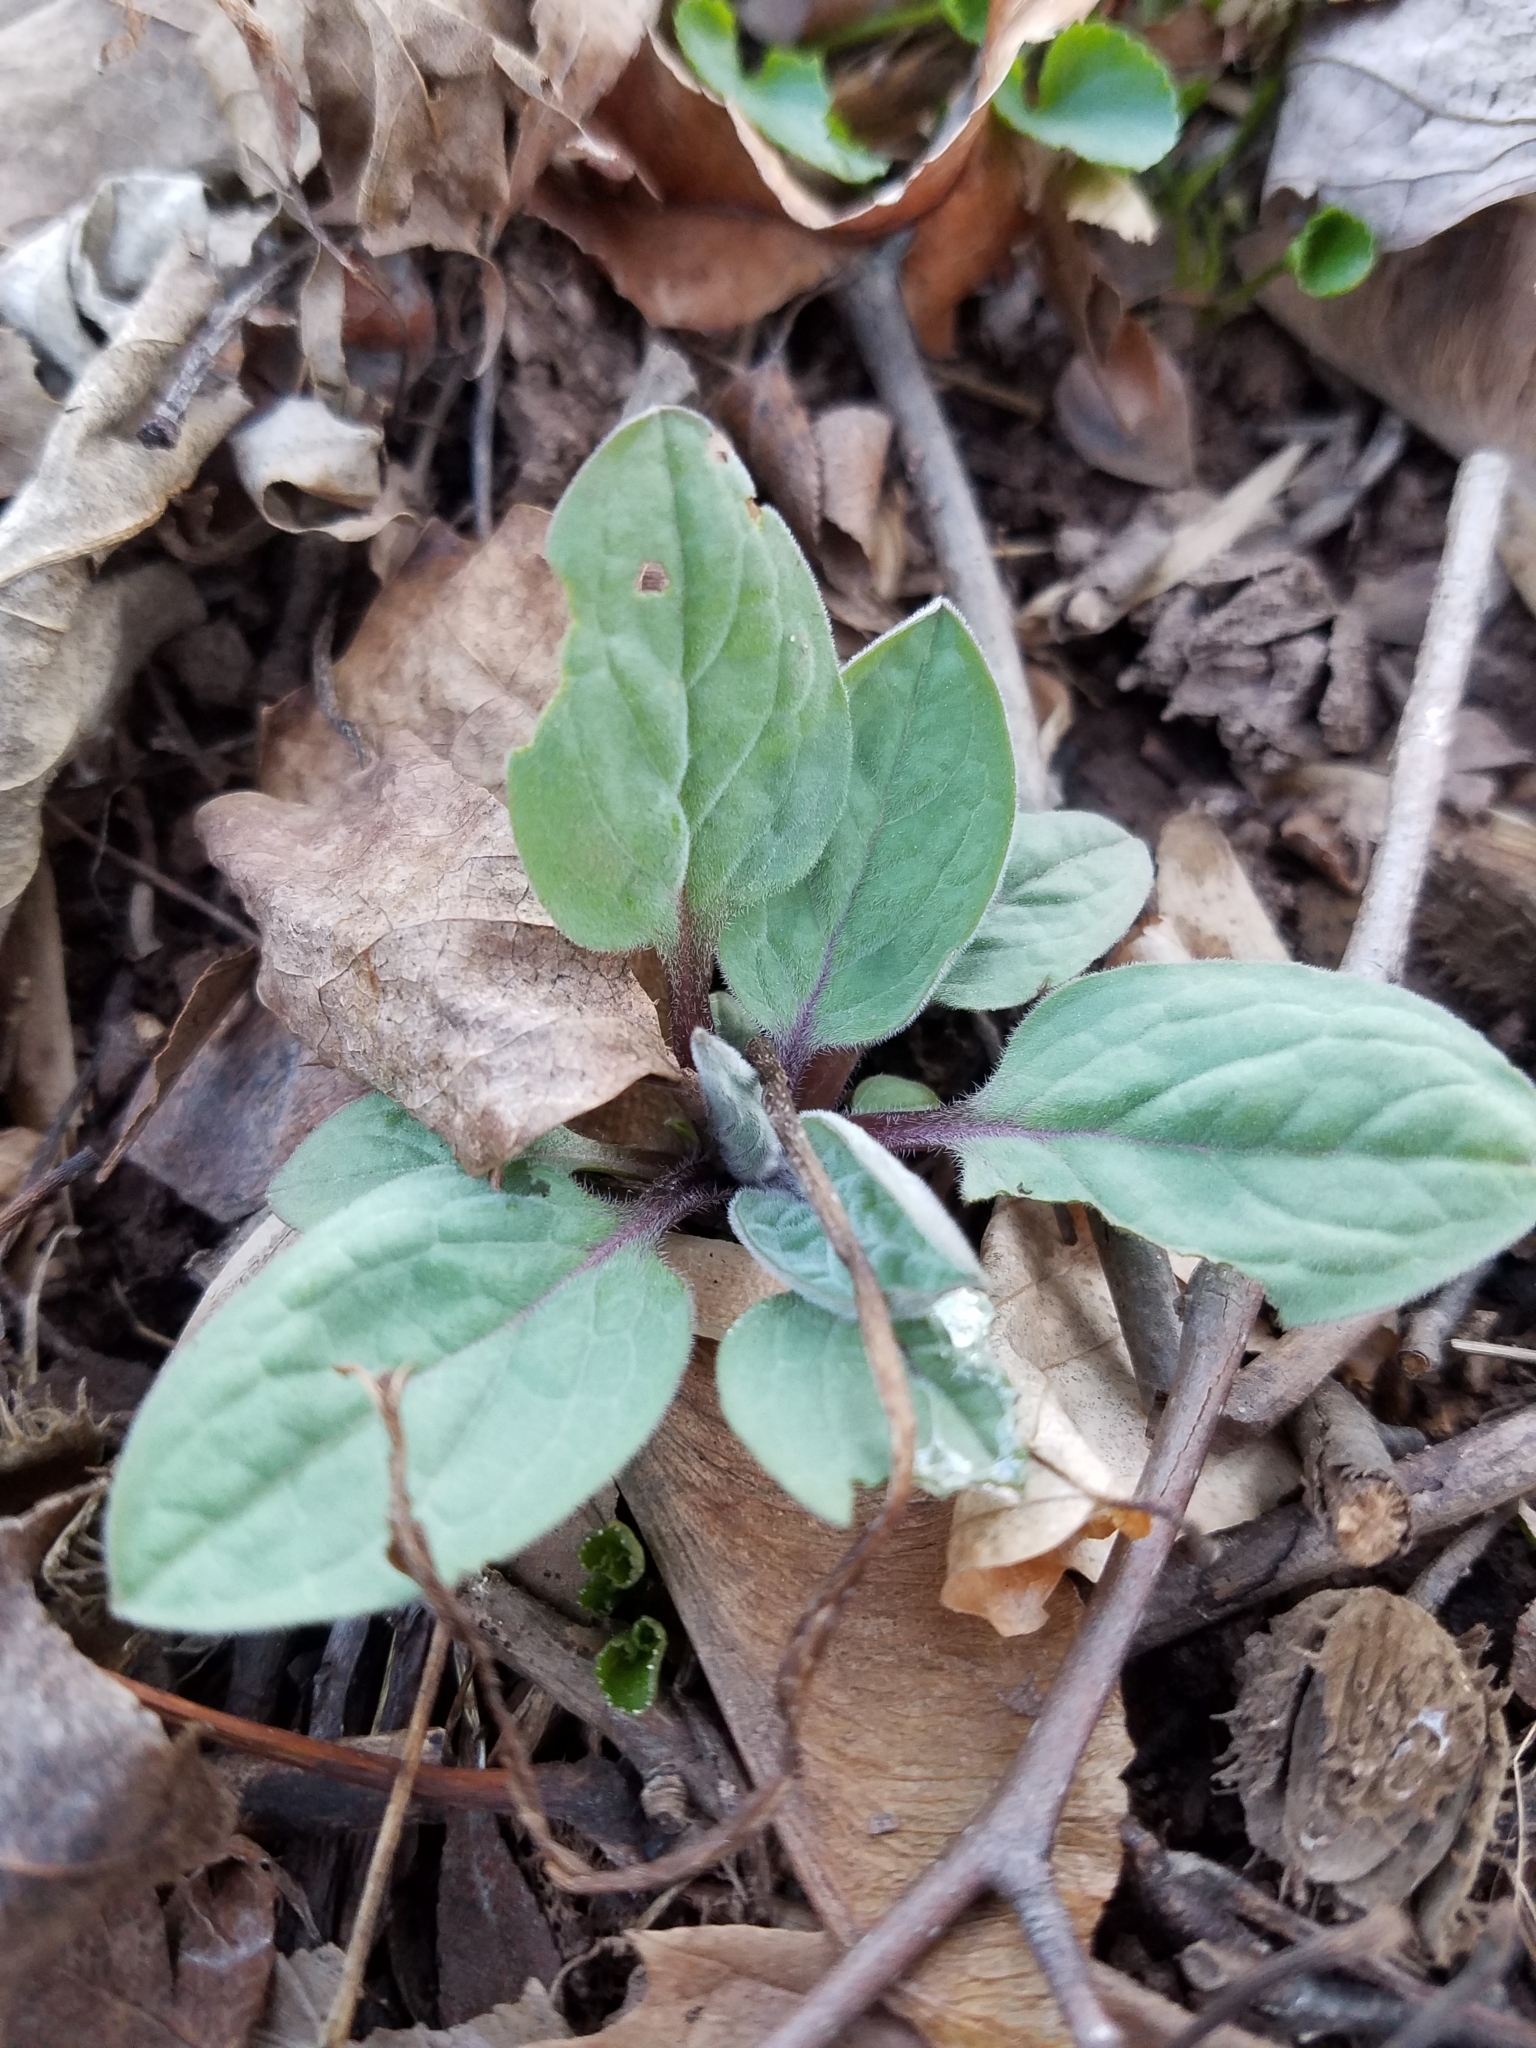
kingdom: Plantae
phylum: Tracheophyta
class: Magnoliopsida
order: Boraginales
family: Boraginaceae
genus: Hackelia
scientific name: Hackelia virginiana
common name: Beggar's-lice
